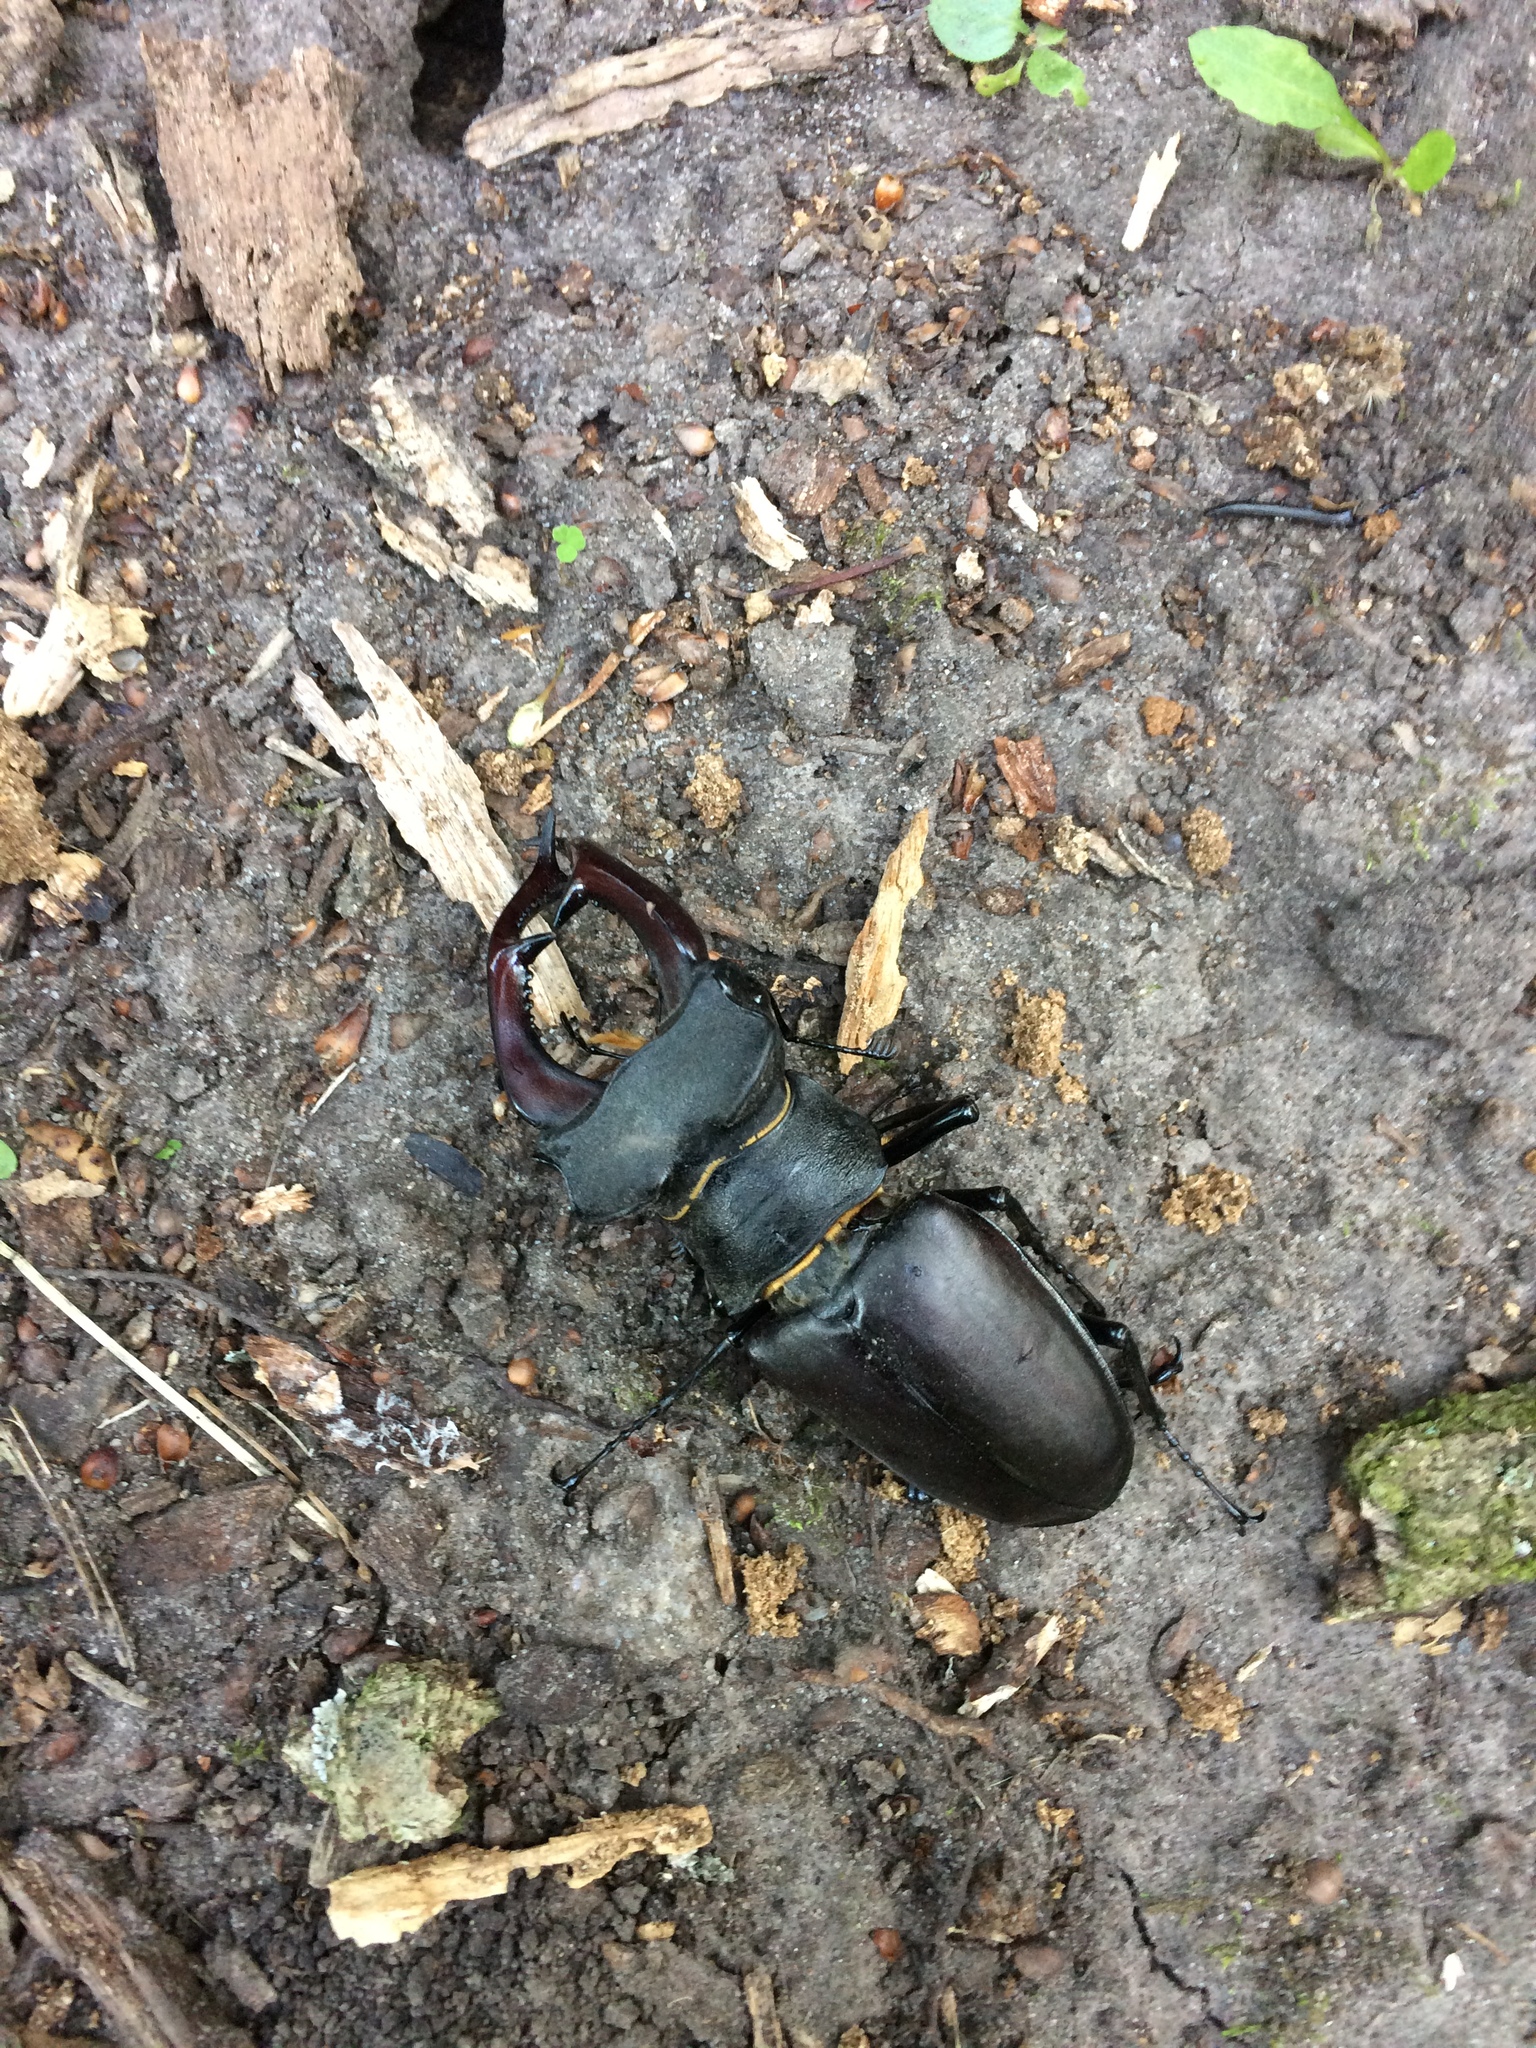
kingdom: Animalia
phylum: Arthropoda
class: Insecta
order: Coleoptera
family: Lucanidae
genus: Lucanus
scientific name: Lucanus cervus
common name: Stag beetle
